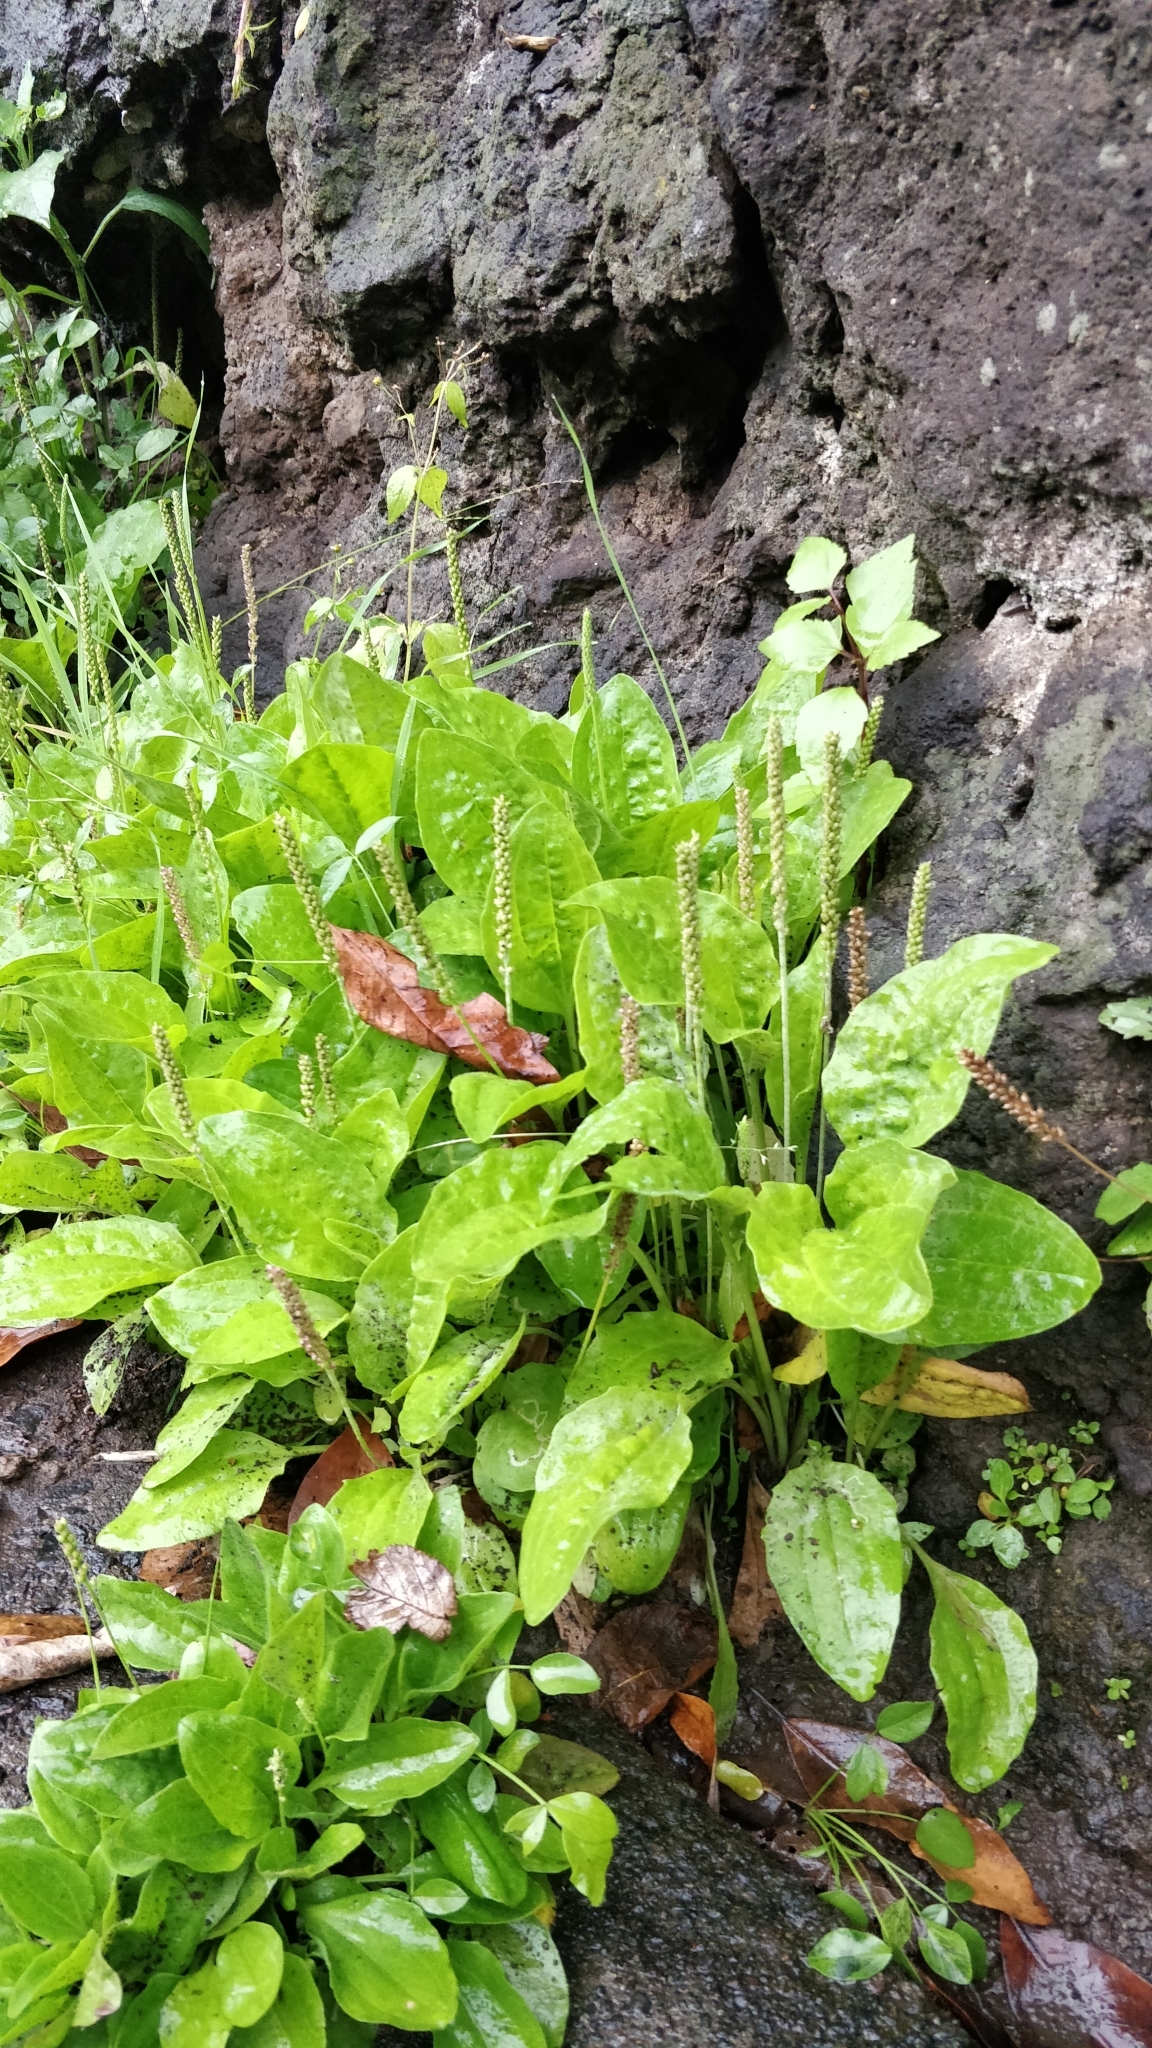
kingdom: Plantae
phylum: Tracheophyta
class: Magnoliopsida
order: Lamiales
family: Plantaginaceae
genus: Plantago
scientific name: Plantago major
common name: Common plantain
